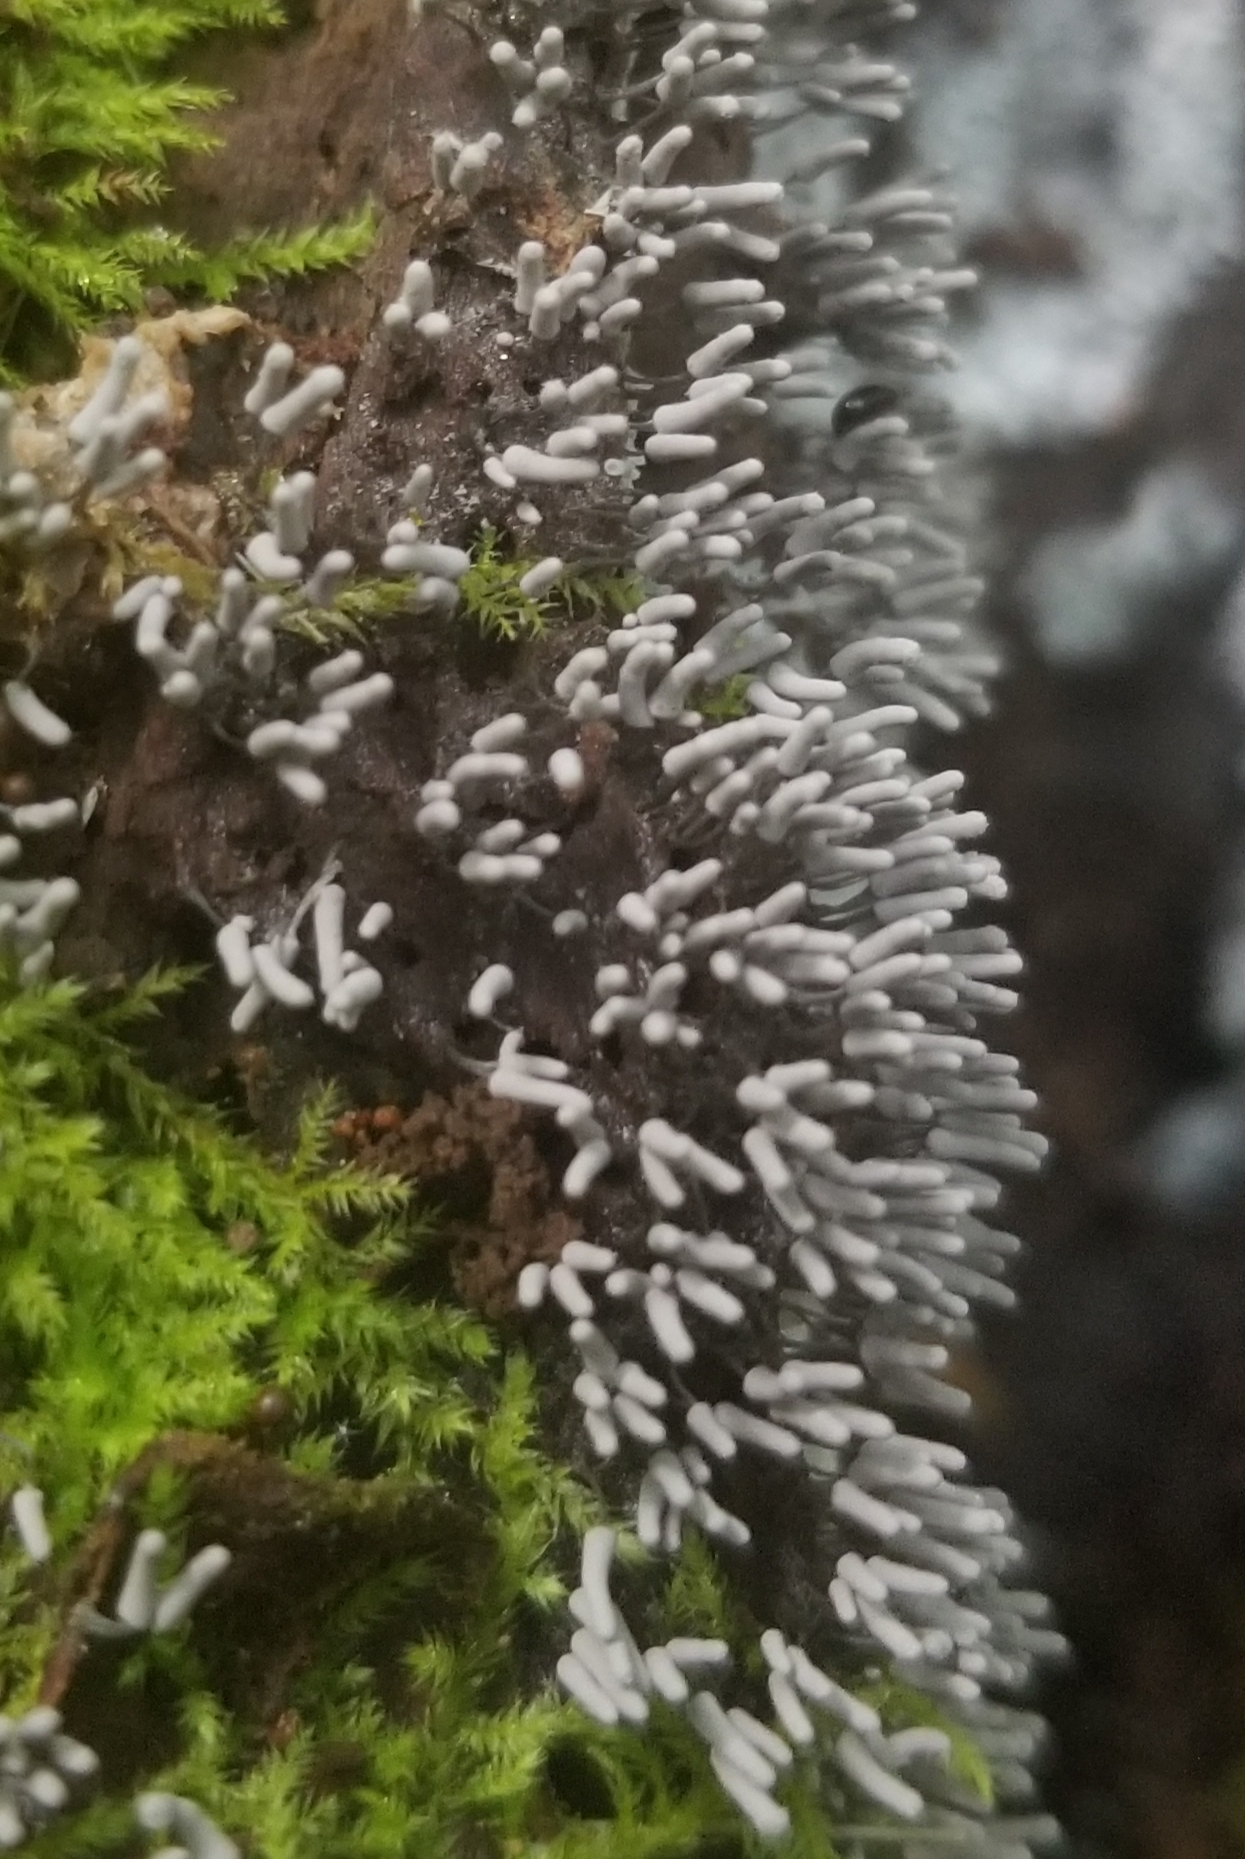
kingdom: Protozoa
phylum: Mycetozoa
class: Myxomycetes
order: Trichiales
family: Arcyriaceae
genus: Arcyria
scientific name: Arcyria cinerea
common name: White carnival candy slime mold
